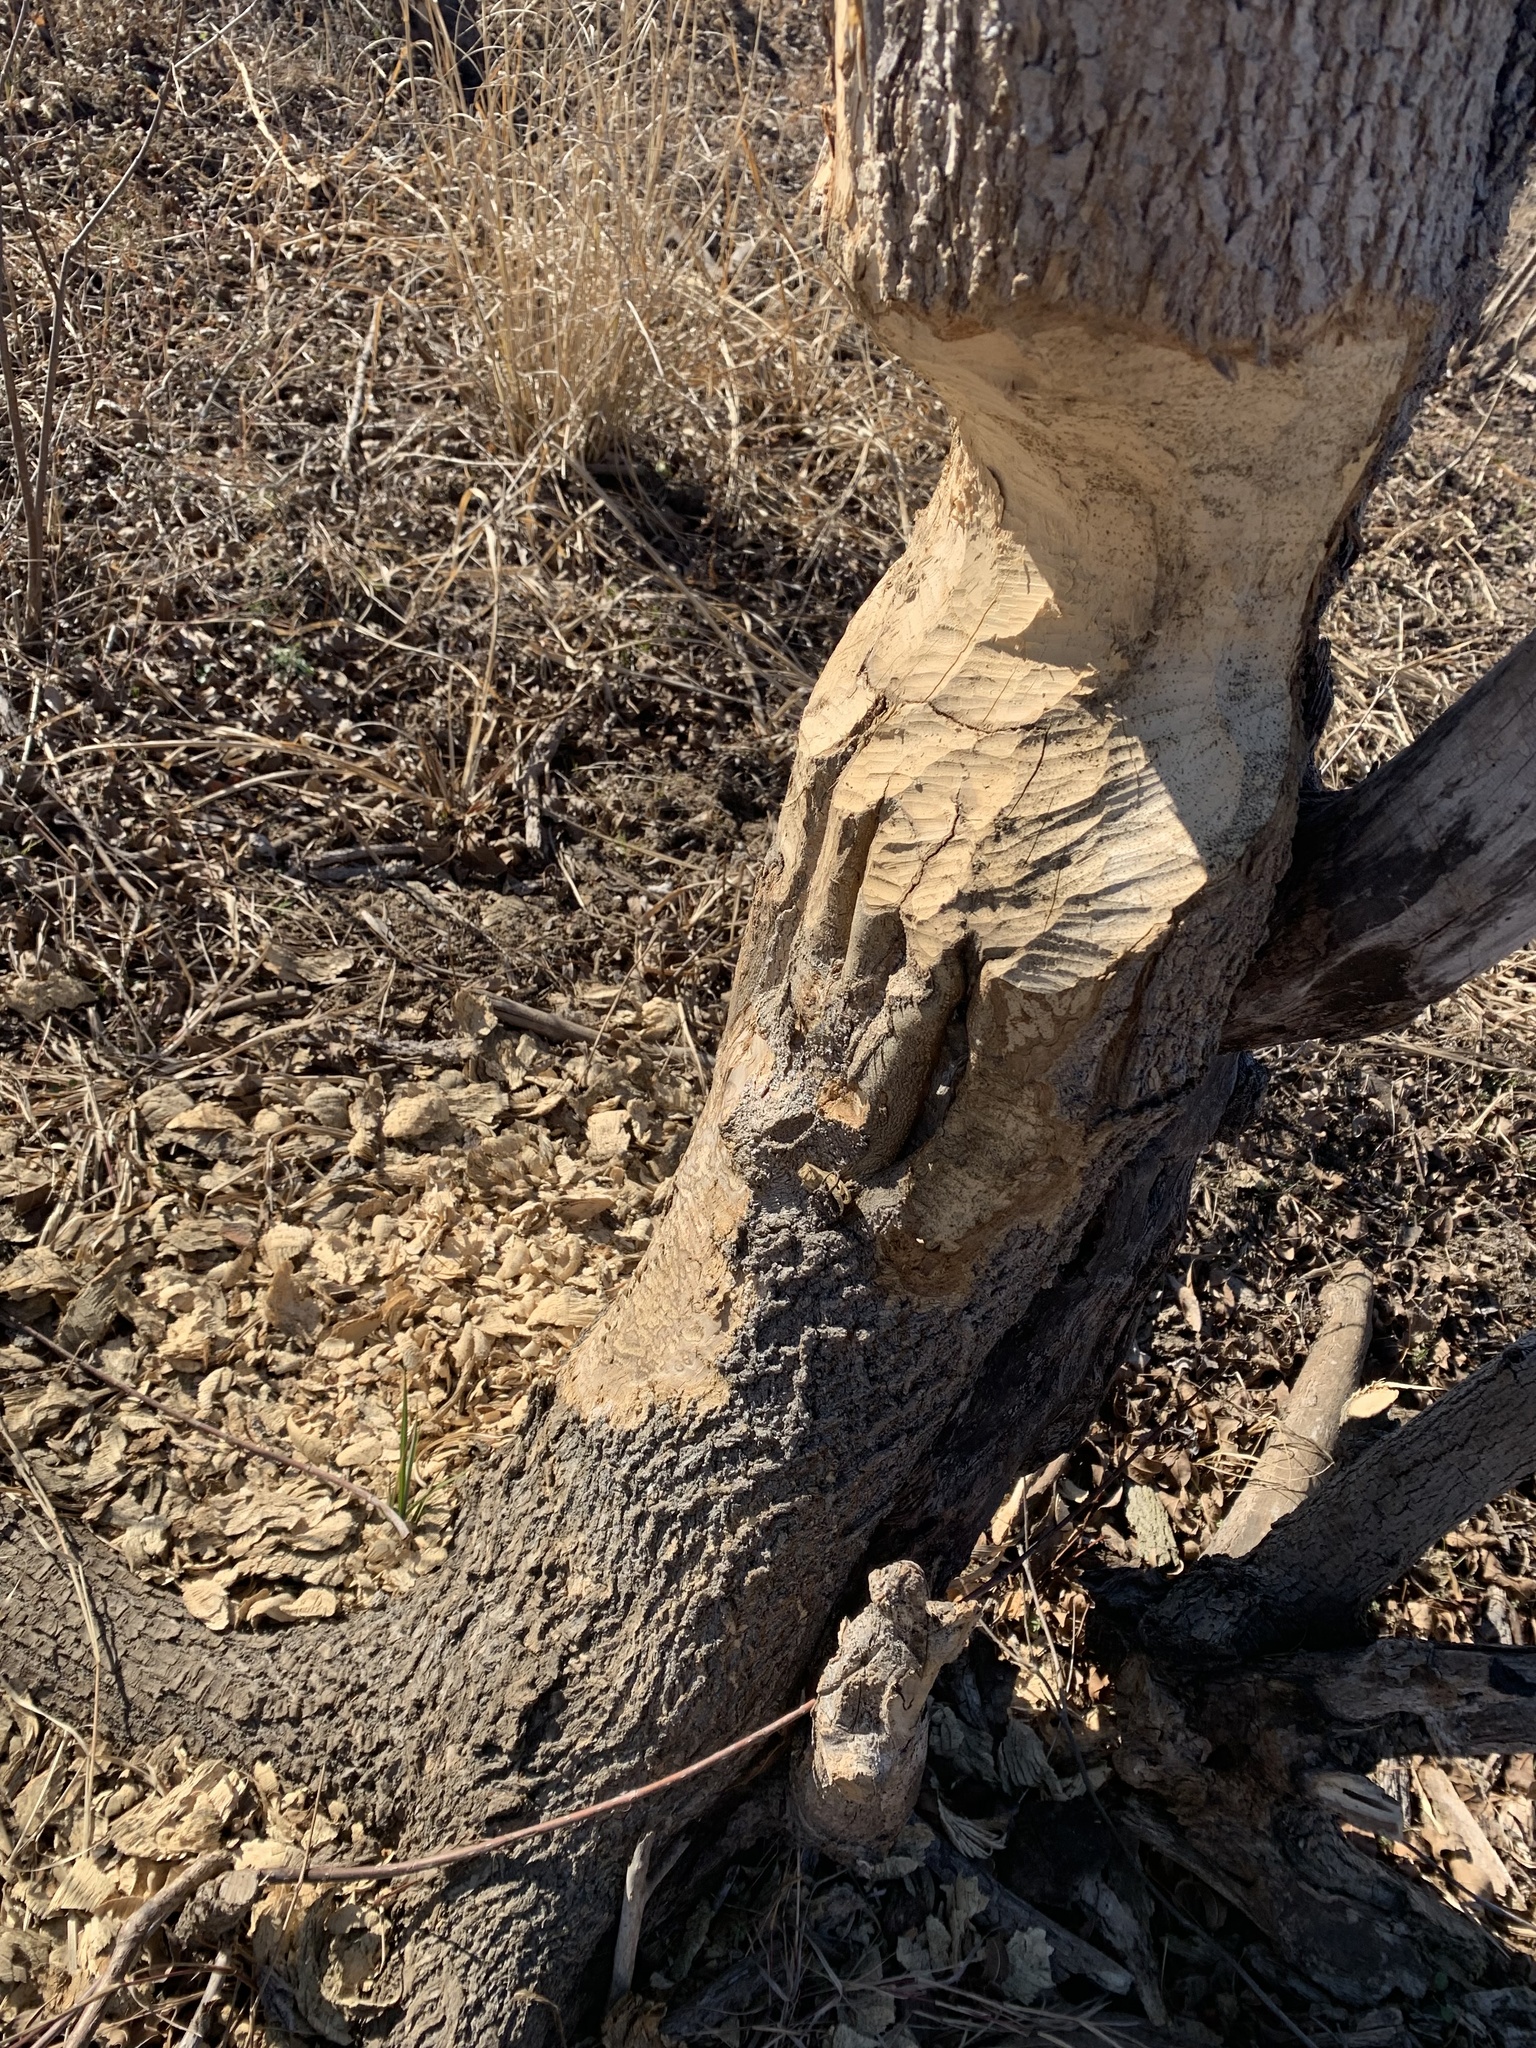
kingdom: Animalia
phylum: Chordata
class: Mammalia
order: Rodentia
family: Castoridae
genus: Castor
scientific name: Castor canadensis
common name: American beaver
